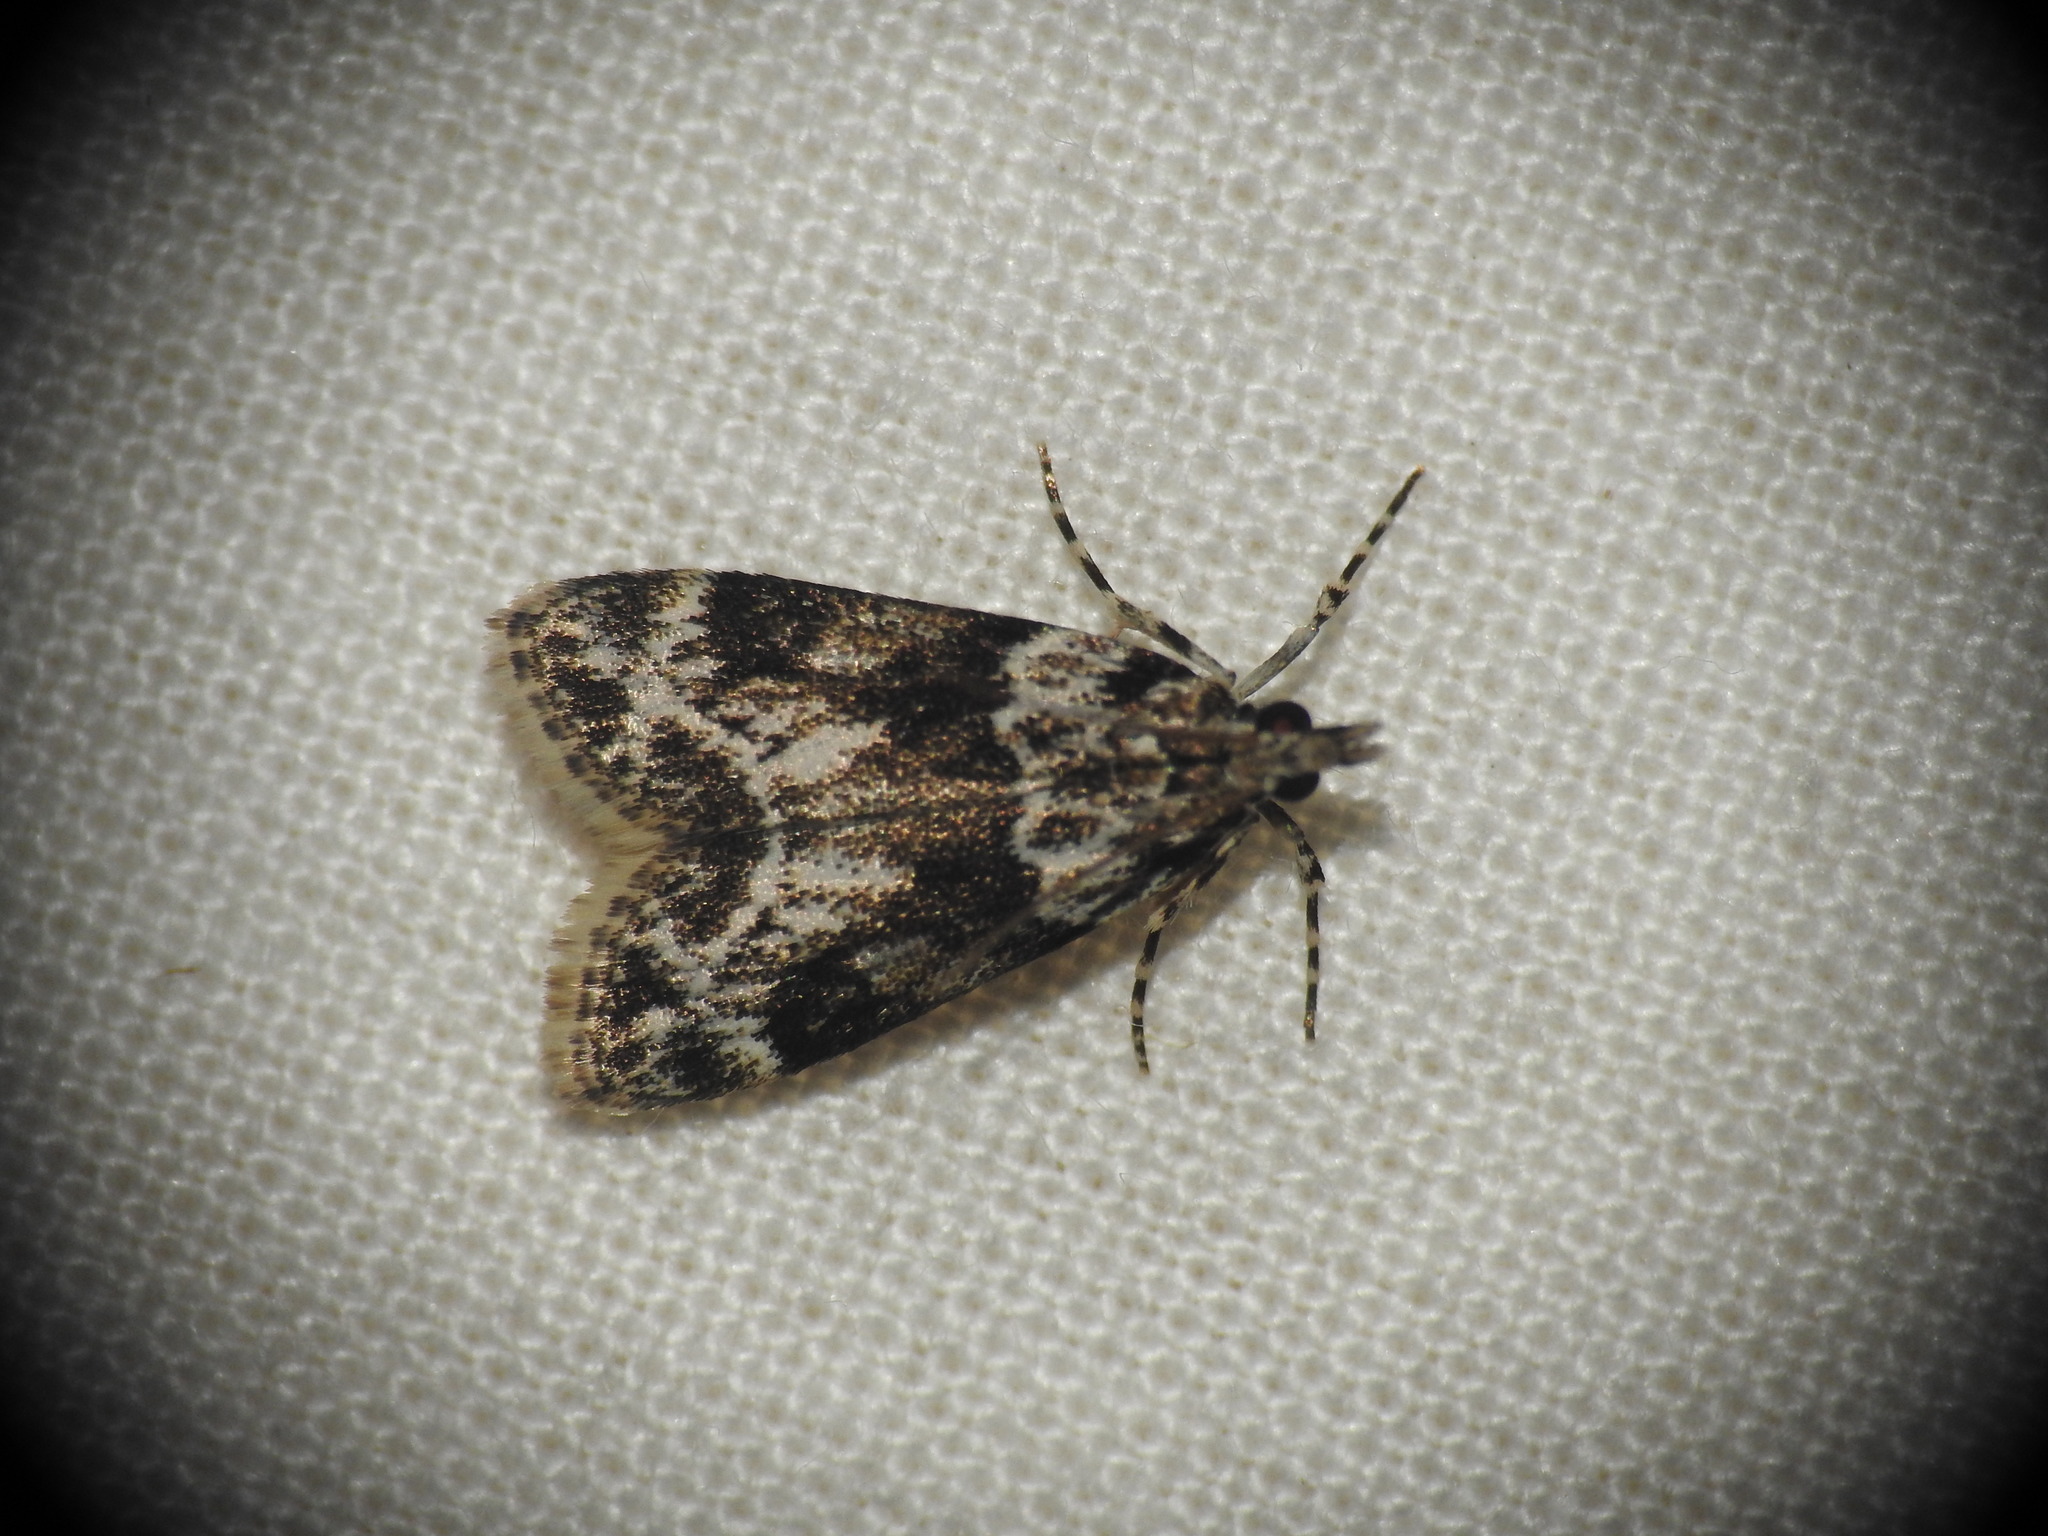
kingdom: Animalia
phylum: Arthropoda
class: Insecta
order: Lepidoptera
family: Crambidae
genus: Eudonia
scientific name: Eudonia delunella
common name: Pied grey
